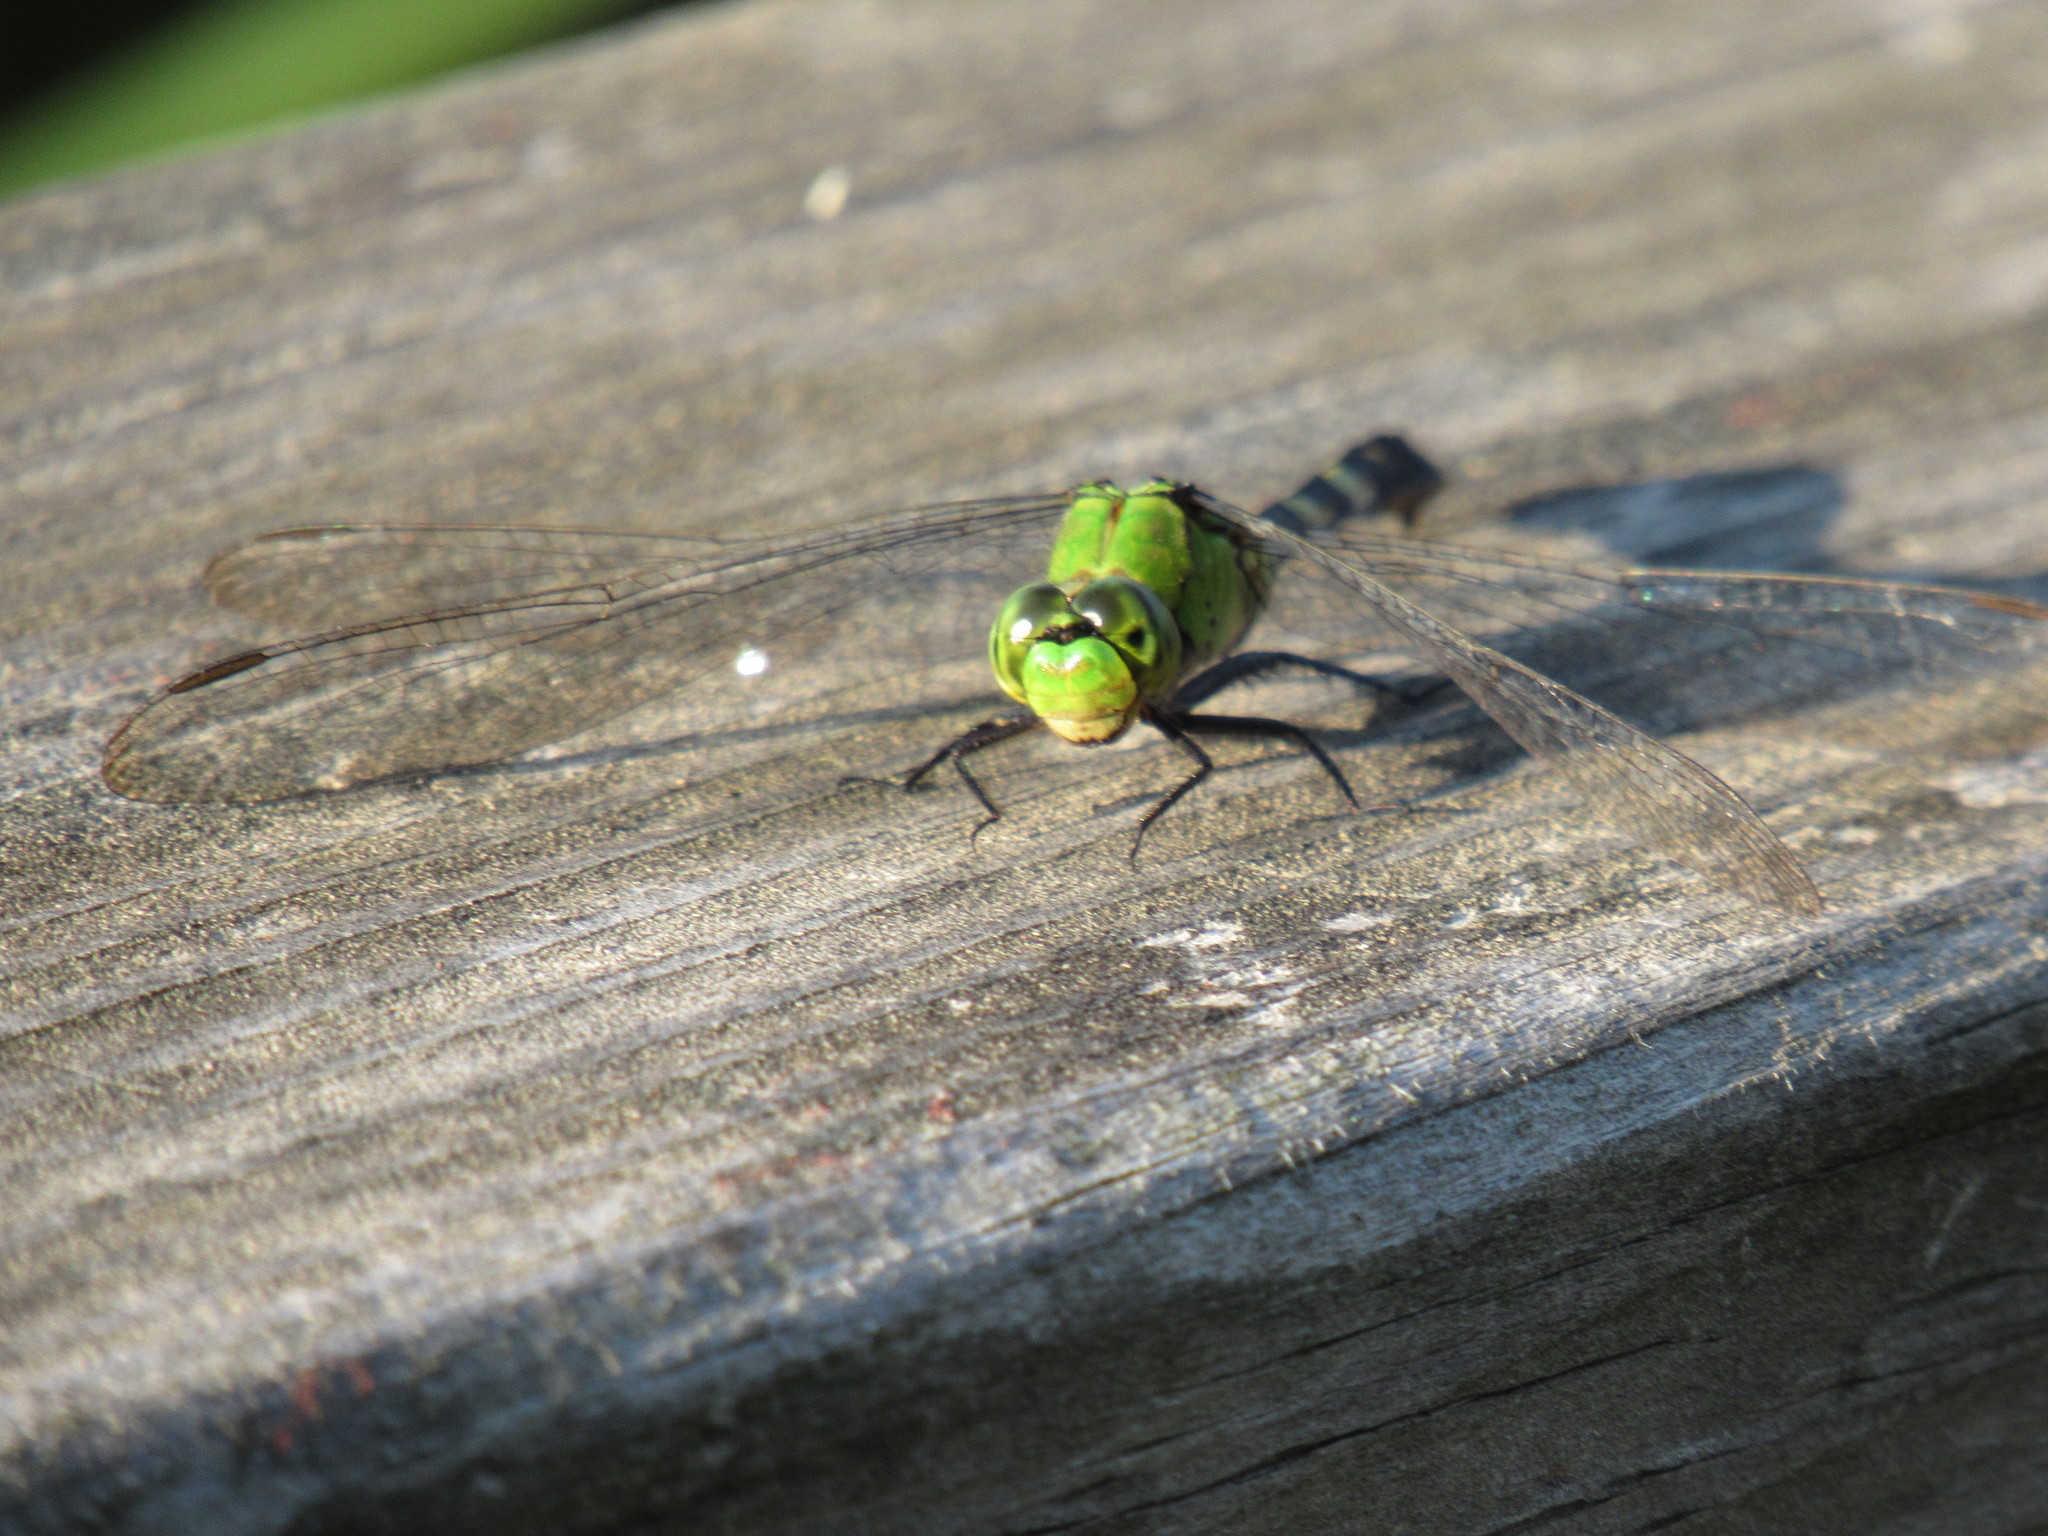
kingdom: Animalia
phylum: Arthropoda
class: Insecta
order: Odonata
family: Libellulidae
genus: Erythemis
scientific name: Erythemis simplicicollis
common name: Eastern pondhawk
